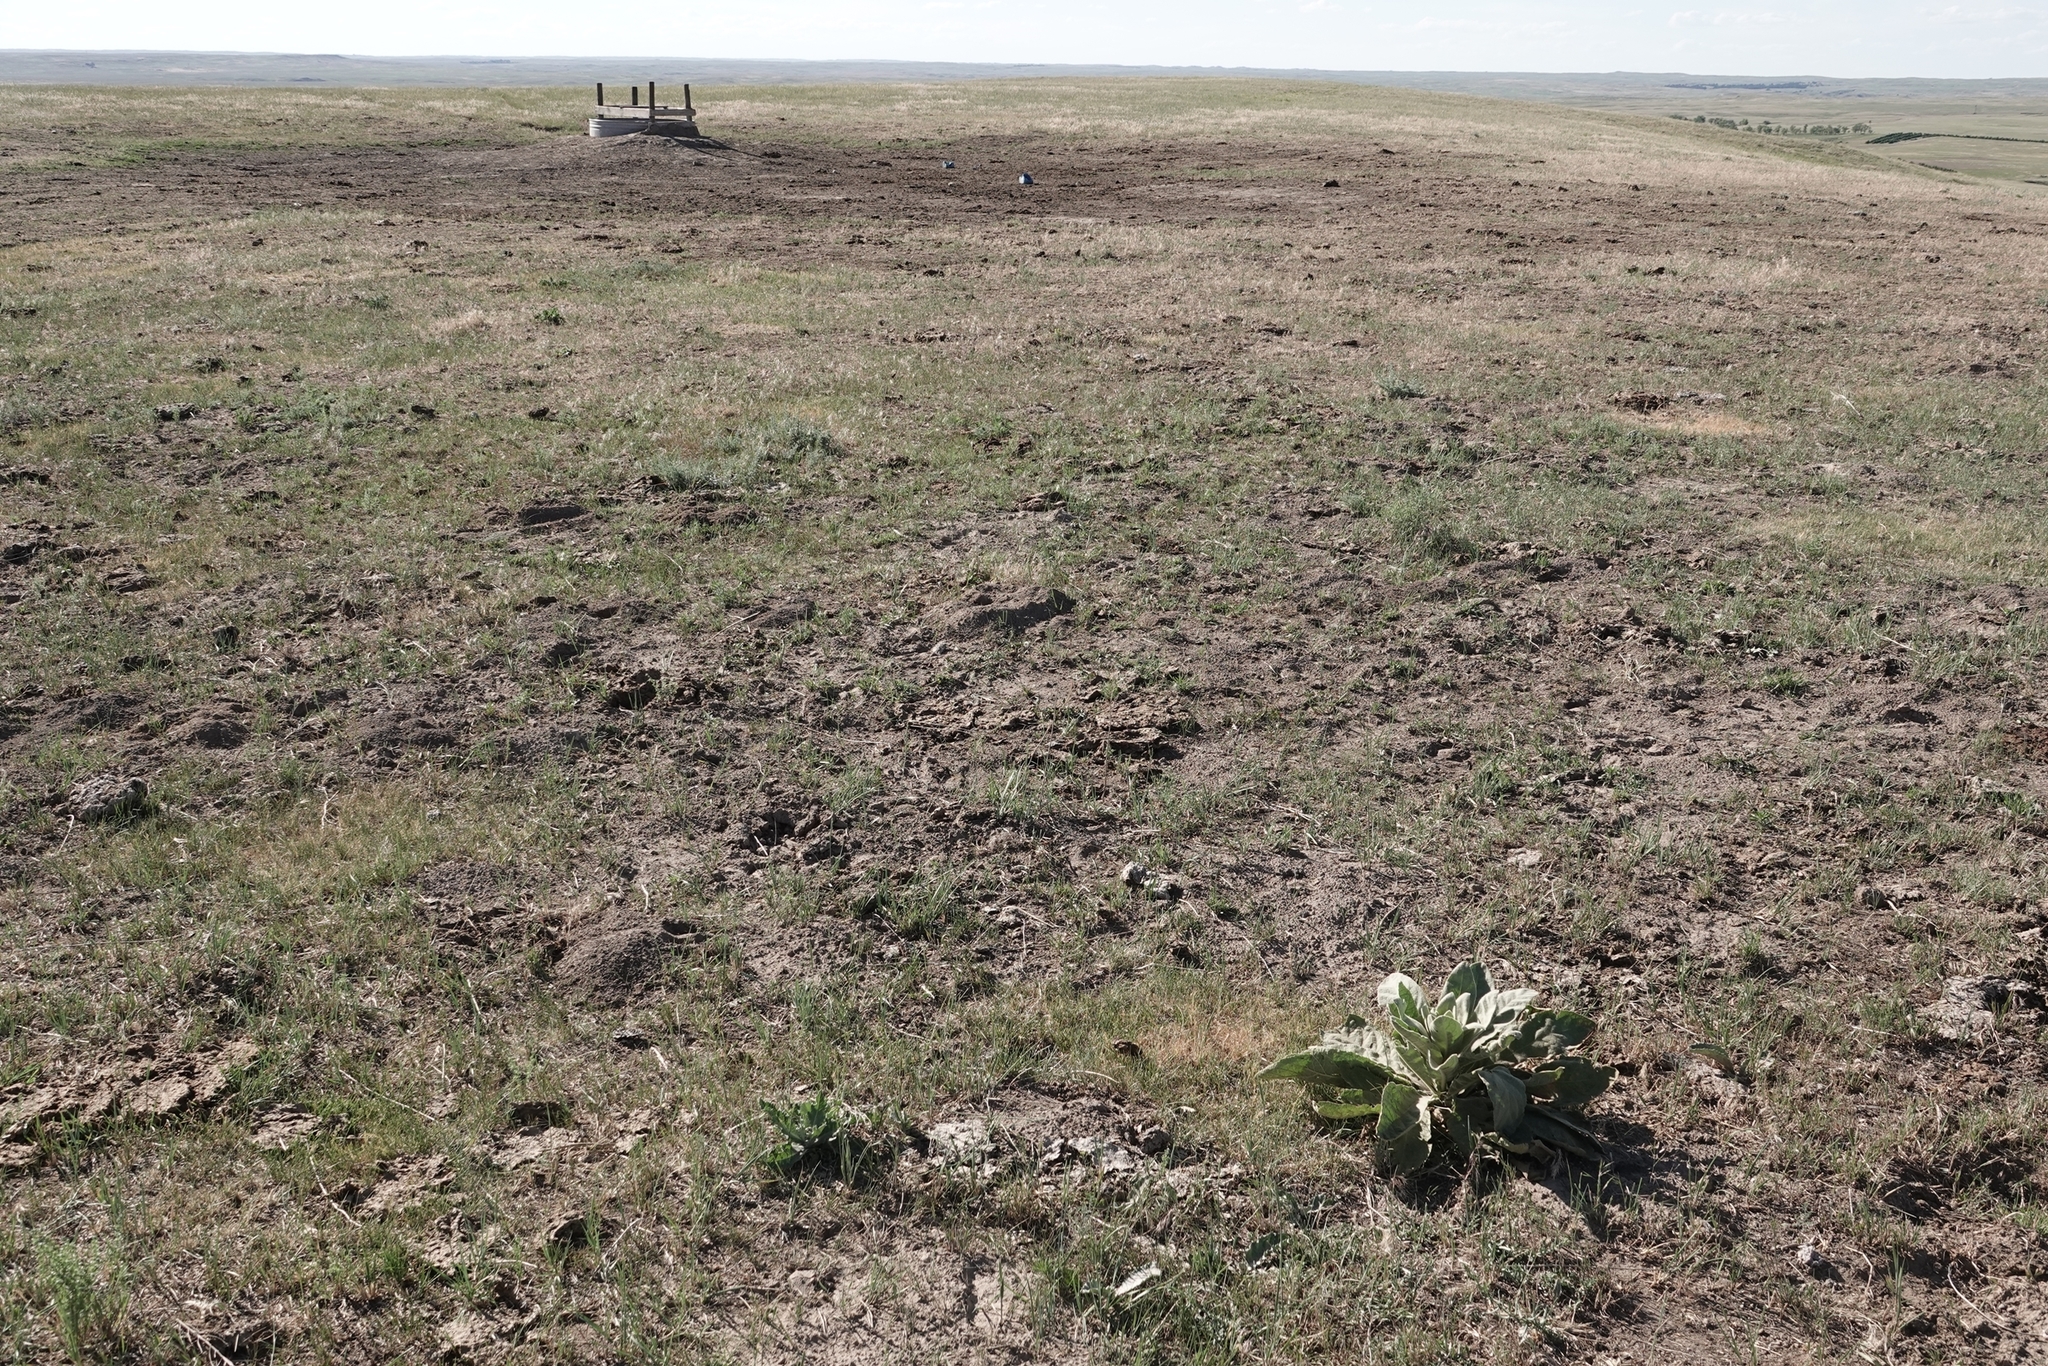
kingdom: Plantae
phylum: Tracheophyta
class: Magnoliopsida
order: Lamiales
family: Scrophulariaceae
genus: Verbascum
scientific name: Verbascum thapsus
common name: Common mullein
